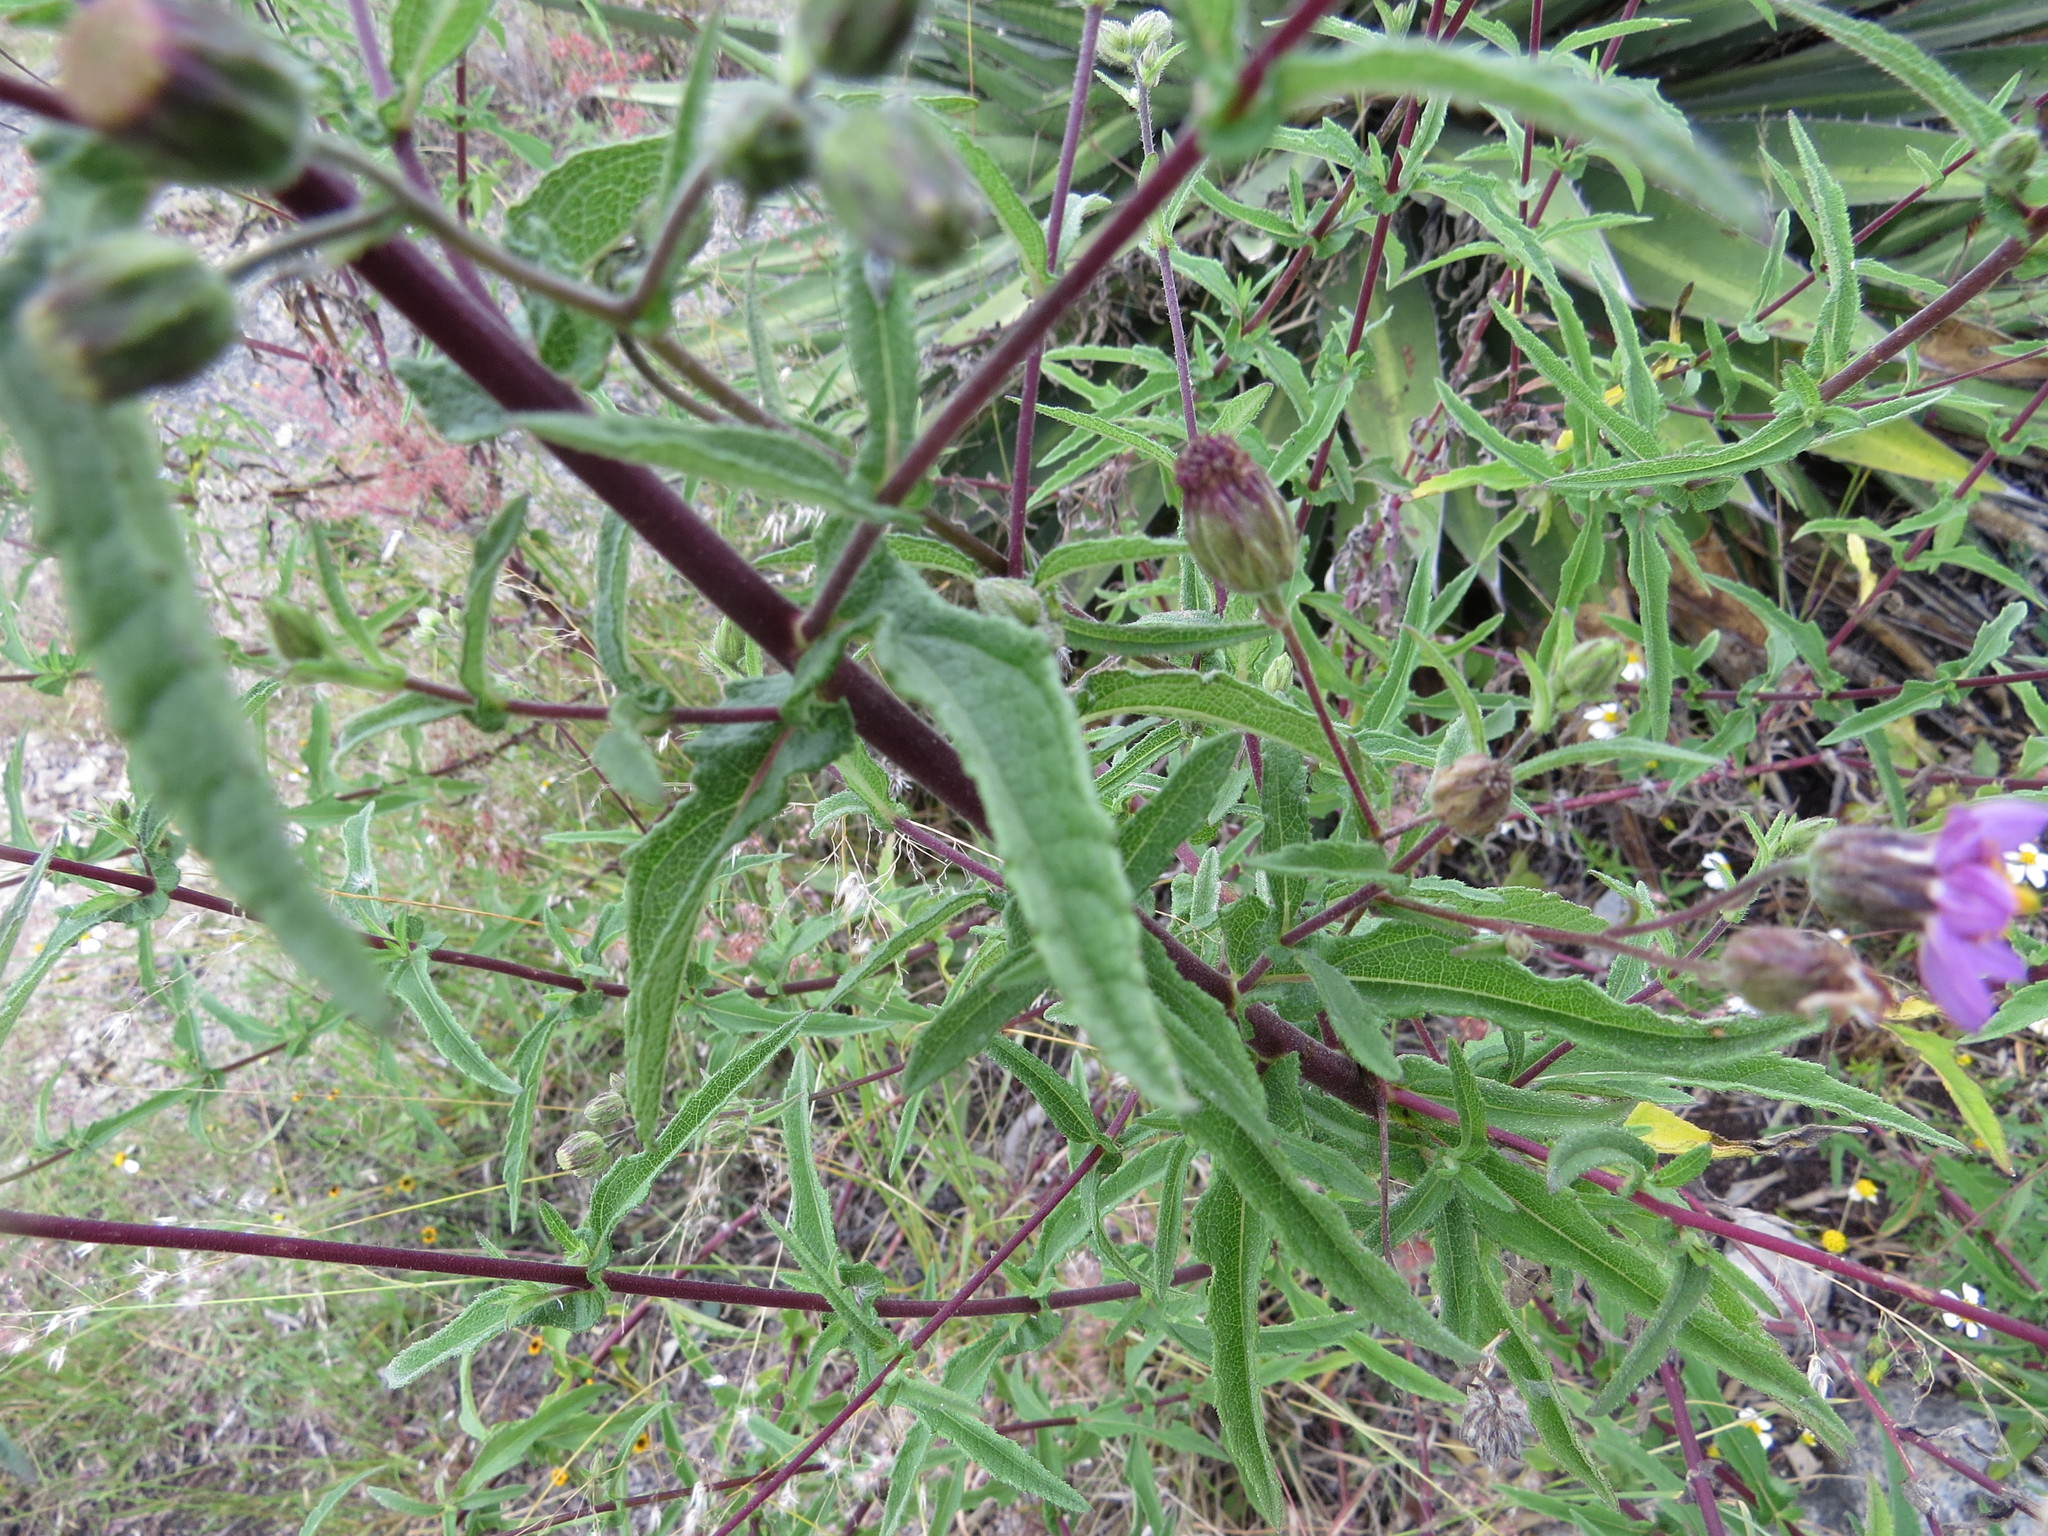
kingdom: Plantae
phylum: Tracheophyta
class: Magnoliopsida
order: Asterales
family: Asteraceae
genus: Simsia
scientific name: Simsia sanguinea
